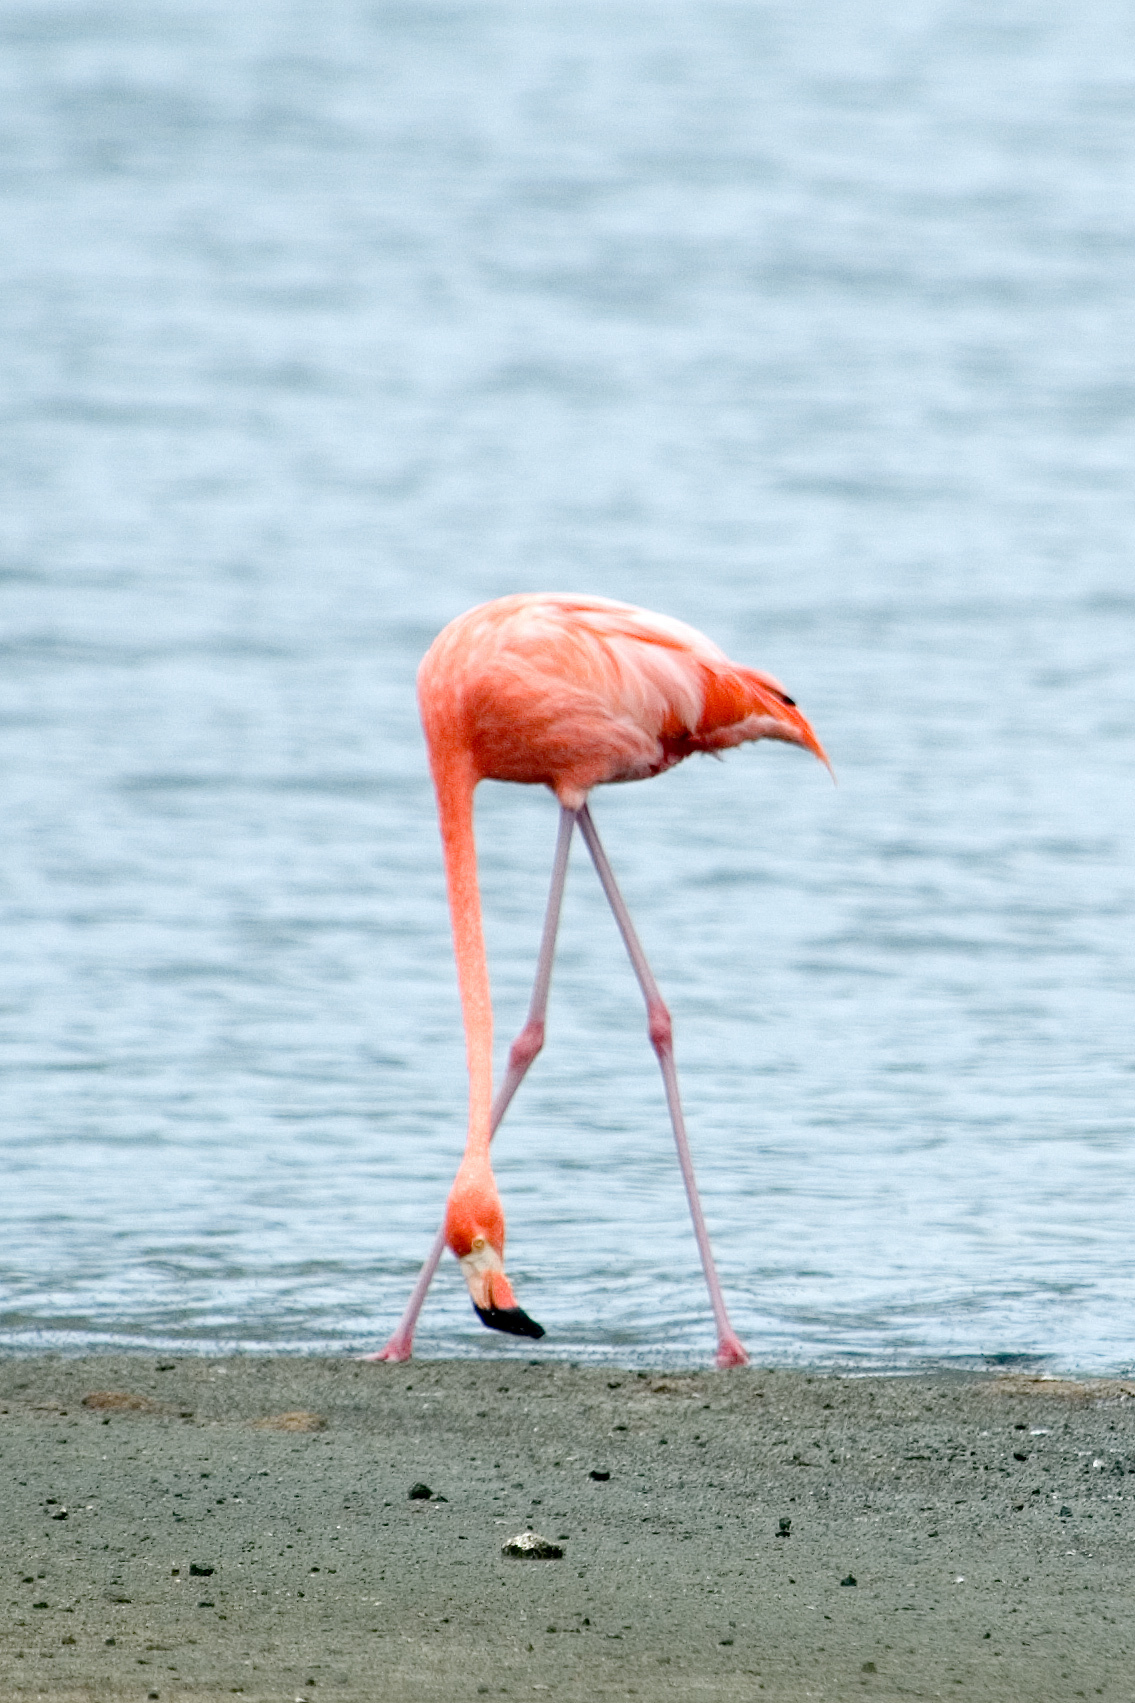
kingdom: Animalia
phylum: Chordata
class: Aves
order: Phoenicopteriformes
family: Phoenicopteridae
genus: Phoenicopterus
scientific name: Phoenicopterus ruber
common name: American flamingo
